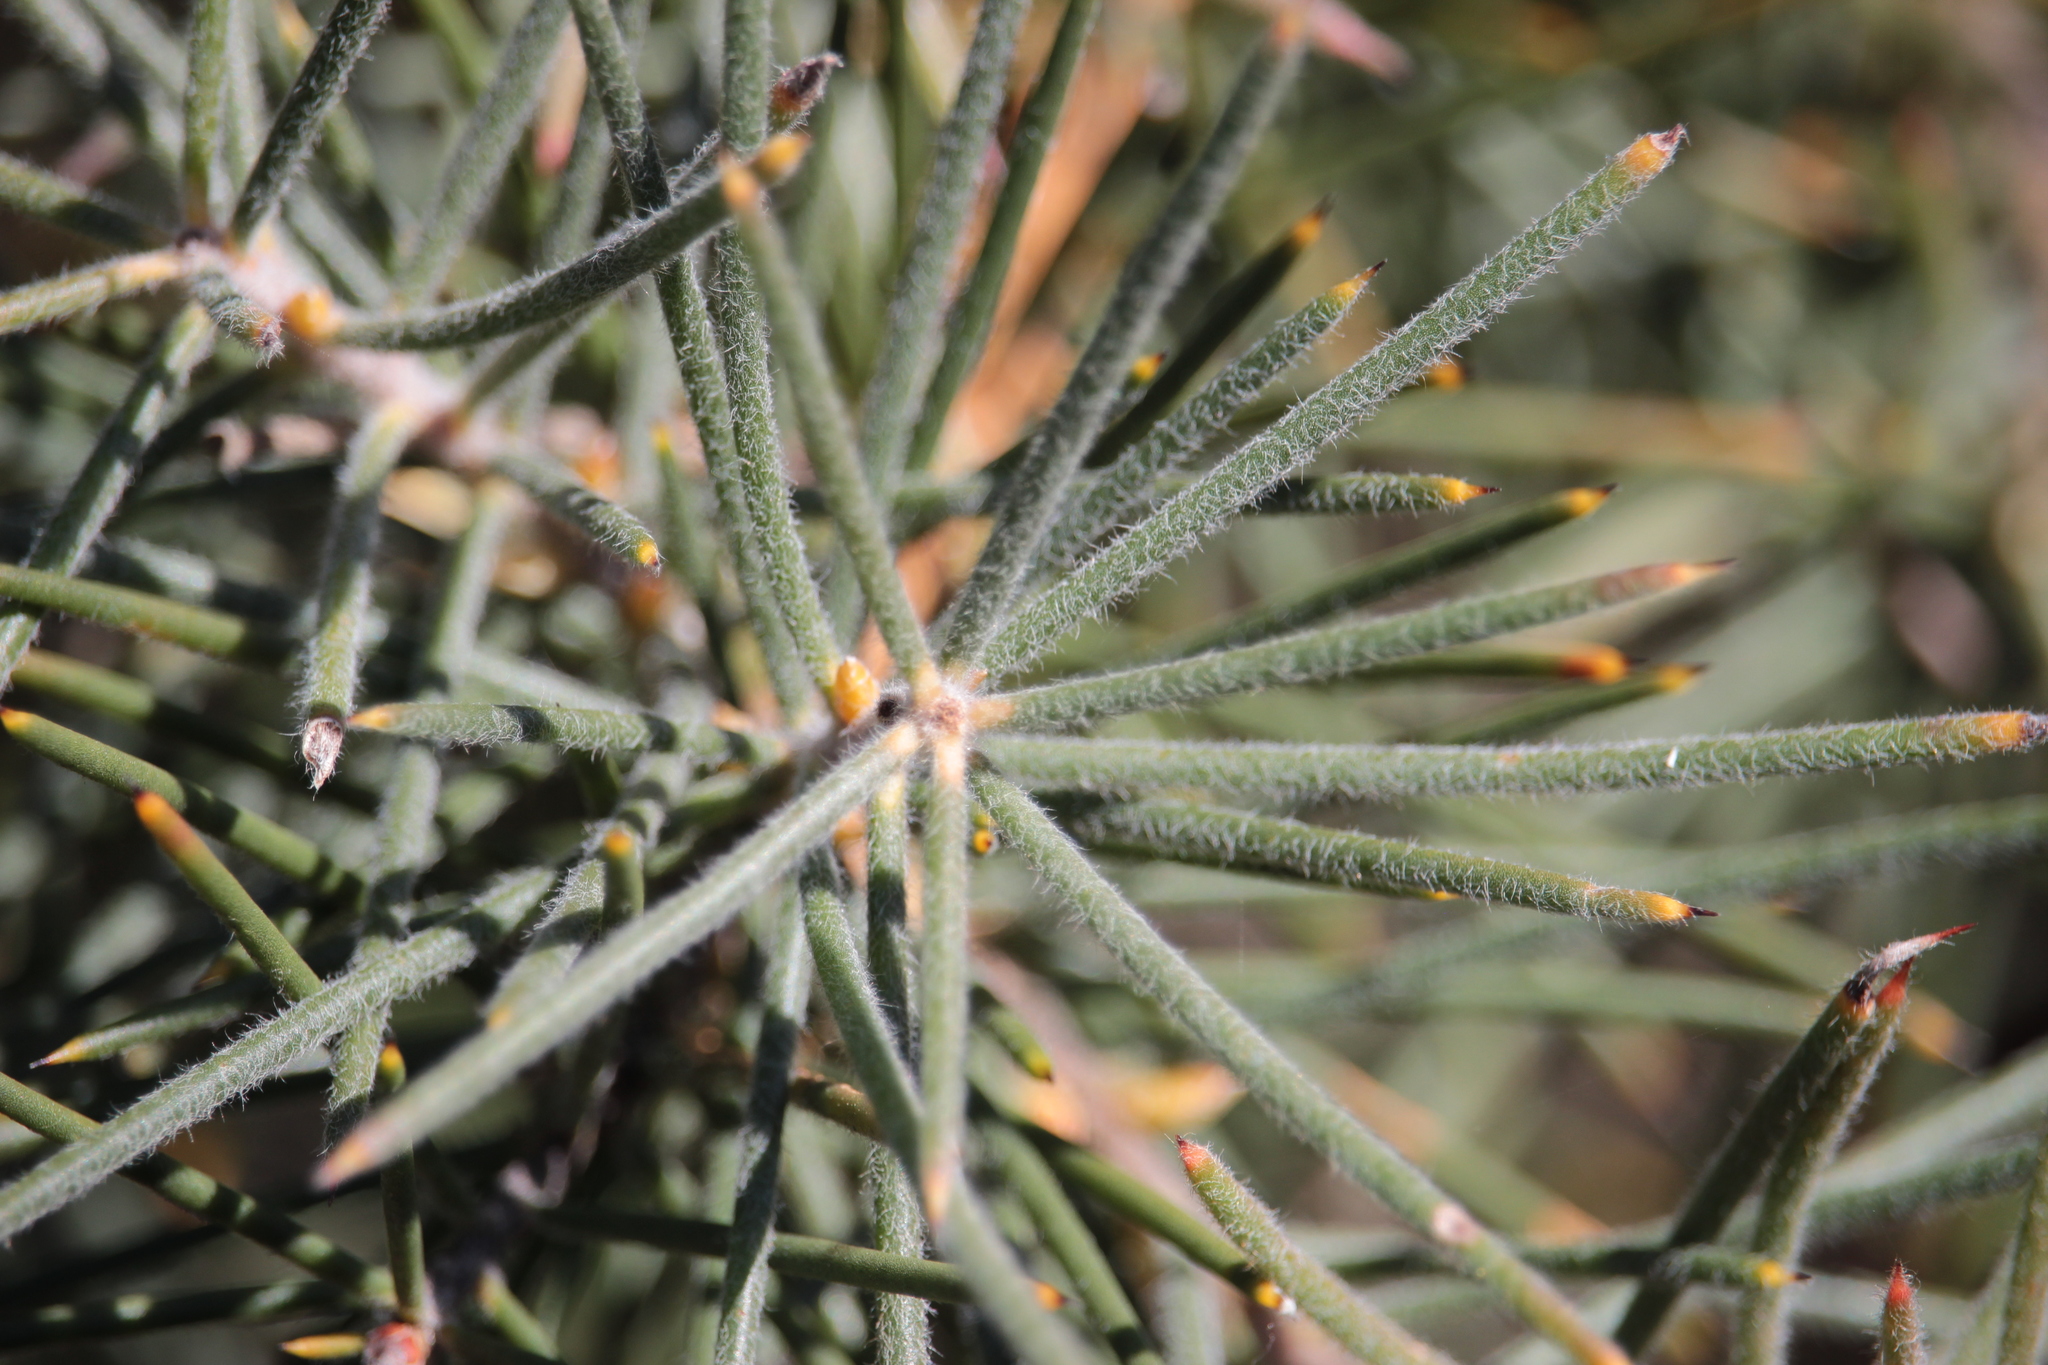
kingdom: Plantae
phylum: Tracheophyta
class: Magnoliopsida
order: Proteales
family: Proteaceae
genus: Hakea
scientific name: Hakea gibbosa
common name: Rock hakea
